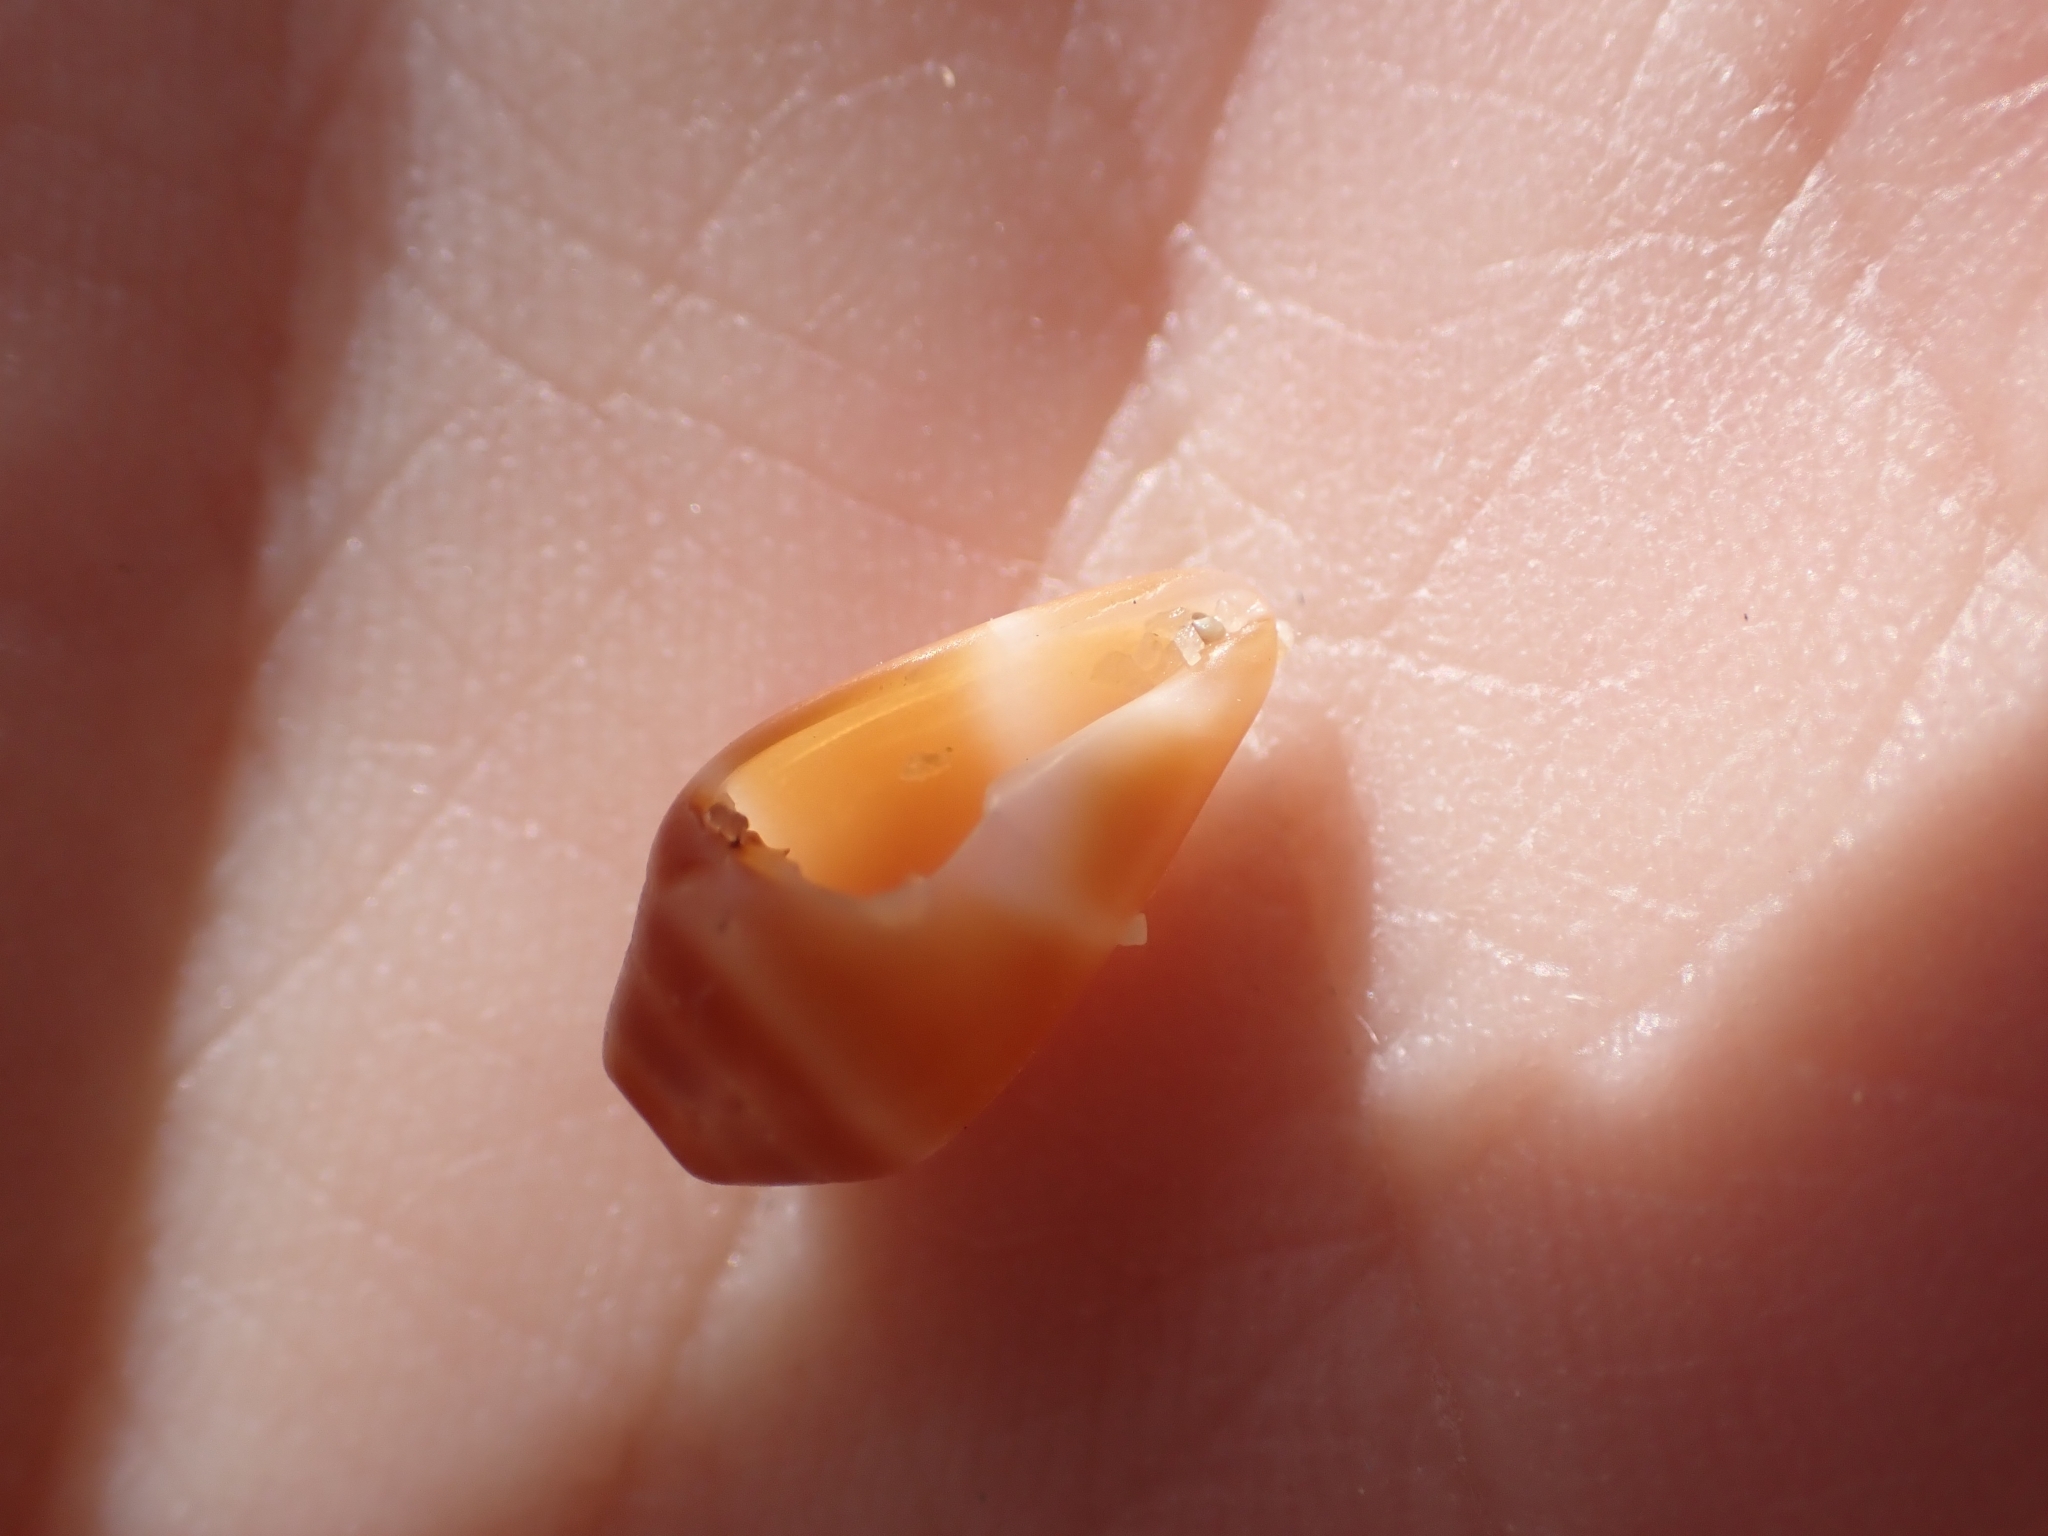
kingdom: Animalia
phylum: Mollusca
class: Gastropoda
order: Neogastropoda
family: Conidae
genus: Conus
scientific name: Conus ventricosus
